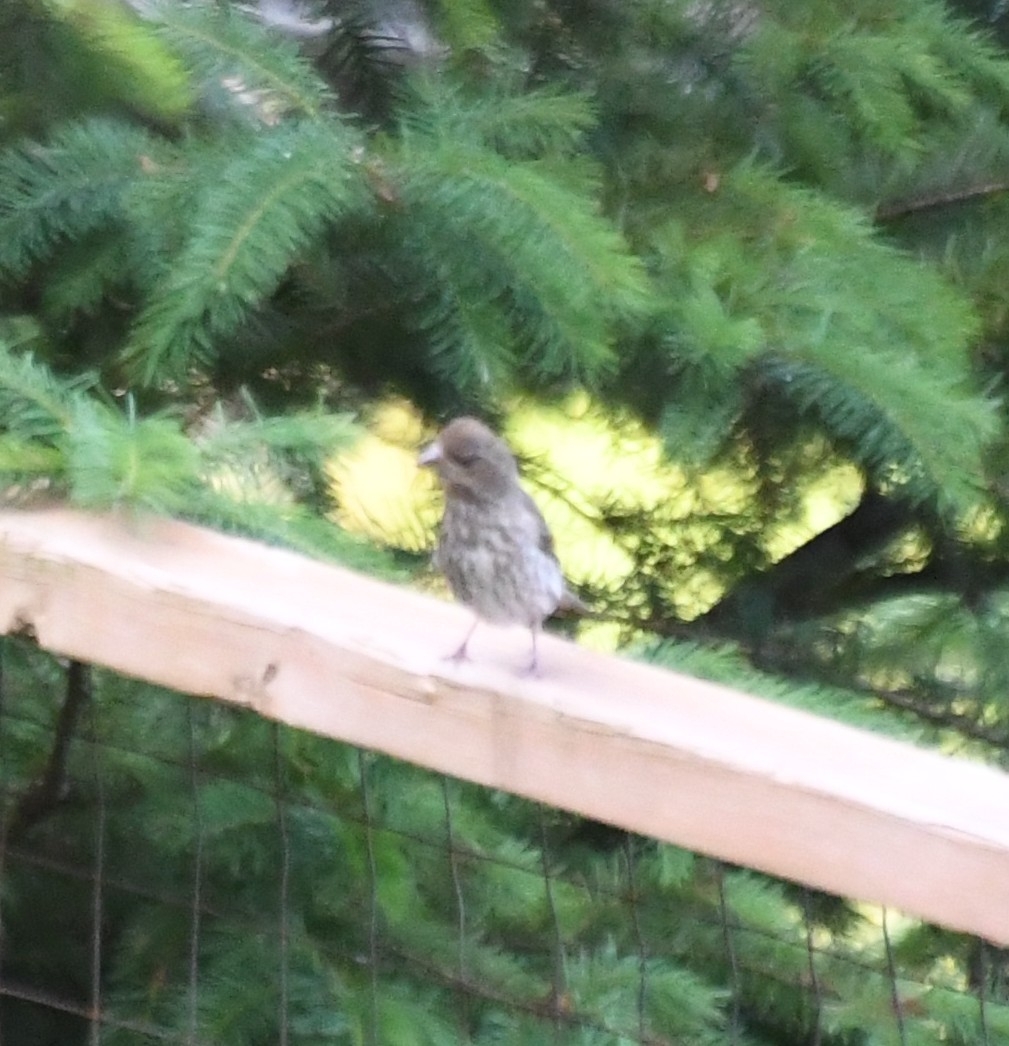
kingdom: Animalia
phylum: Chordata
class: Aves
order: Passeriformes
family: Fringillidae
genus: Haemorhous
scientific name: Haemorhous mexicanus
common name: House finch
